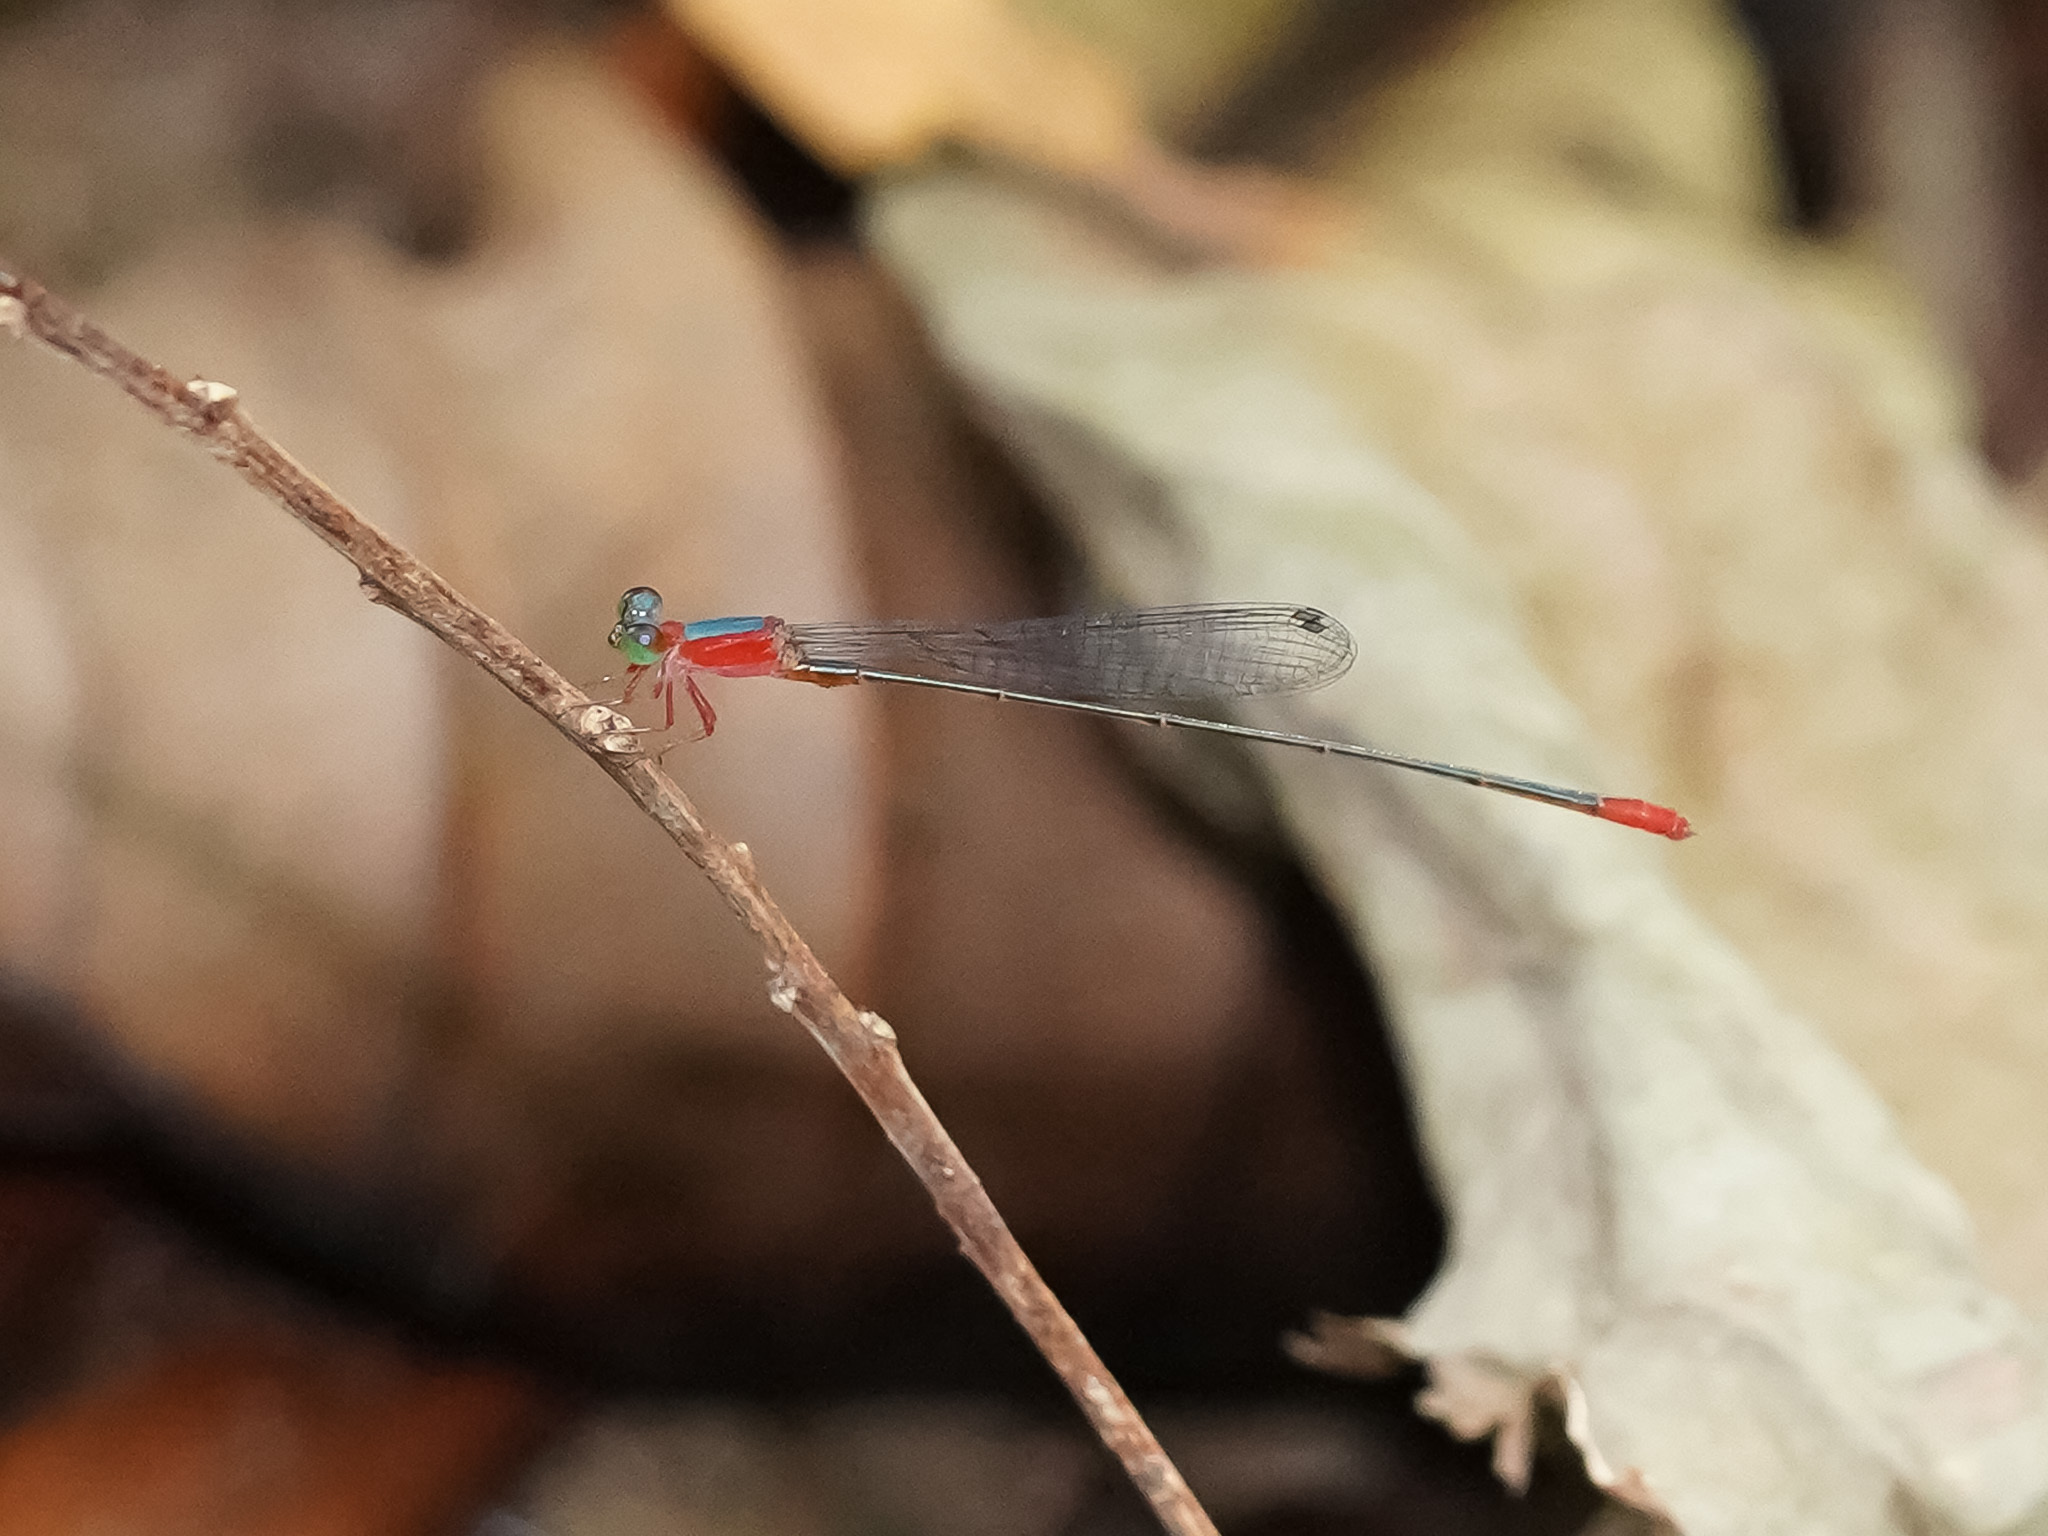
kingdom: Animalia
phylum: Arthropoda
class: Insecta
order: Odonata
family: Coenagrionidae
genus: Teinobasis
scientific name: Teinobasis ruficollis
